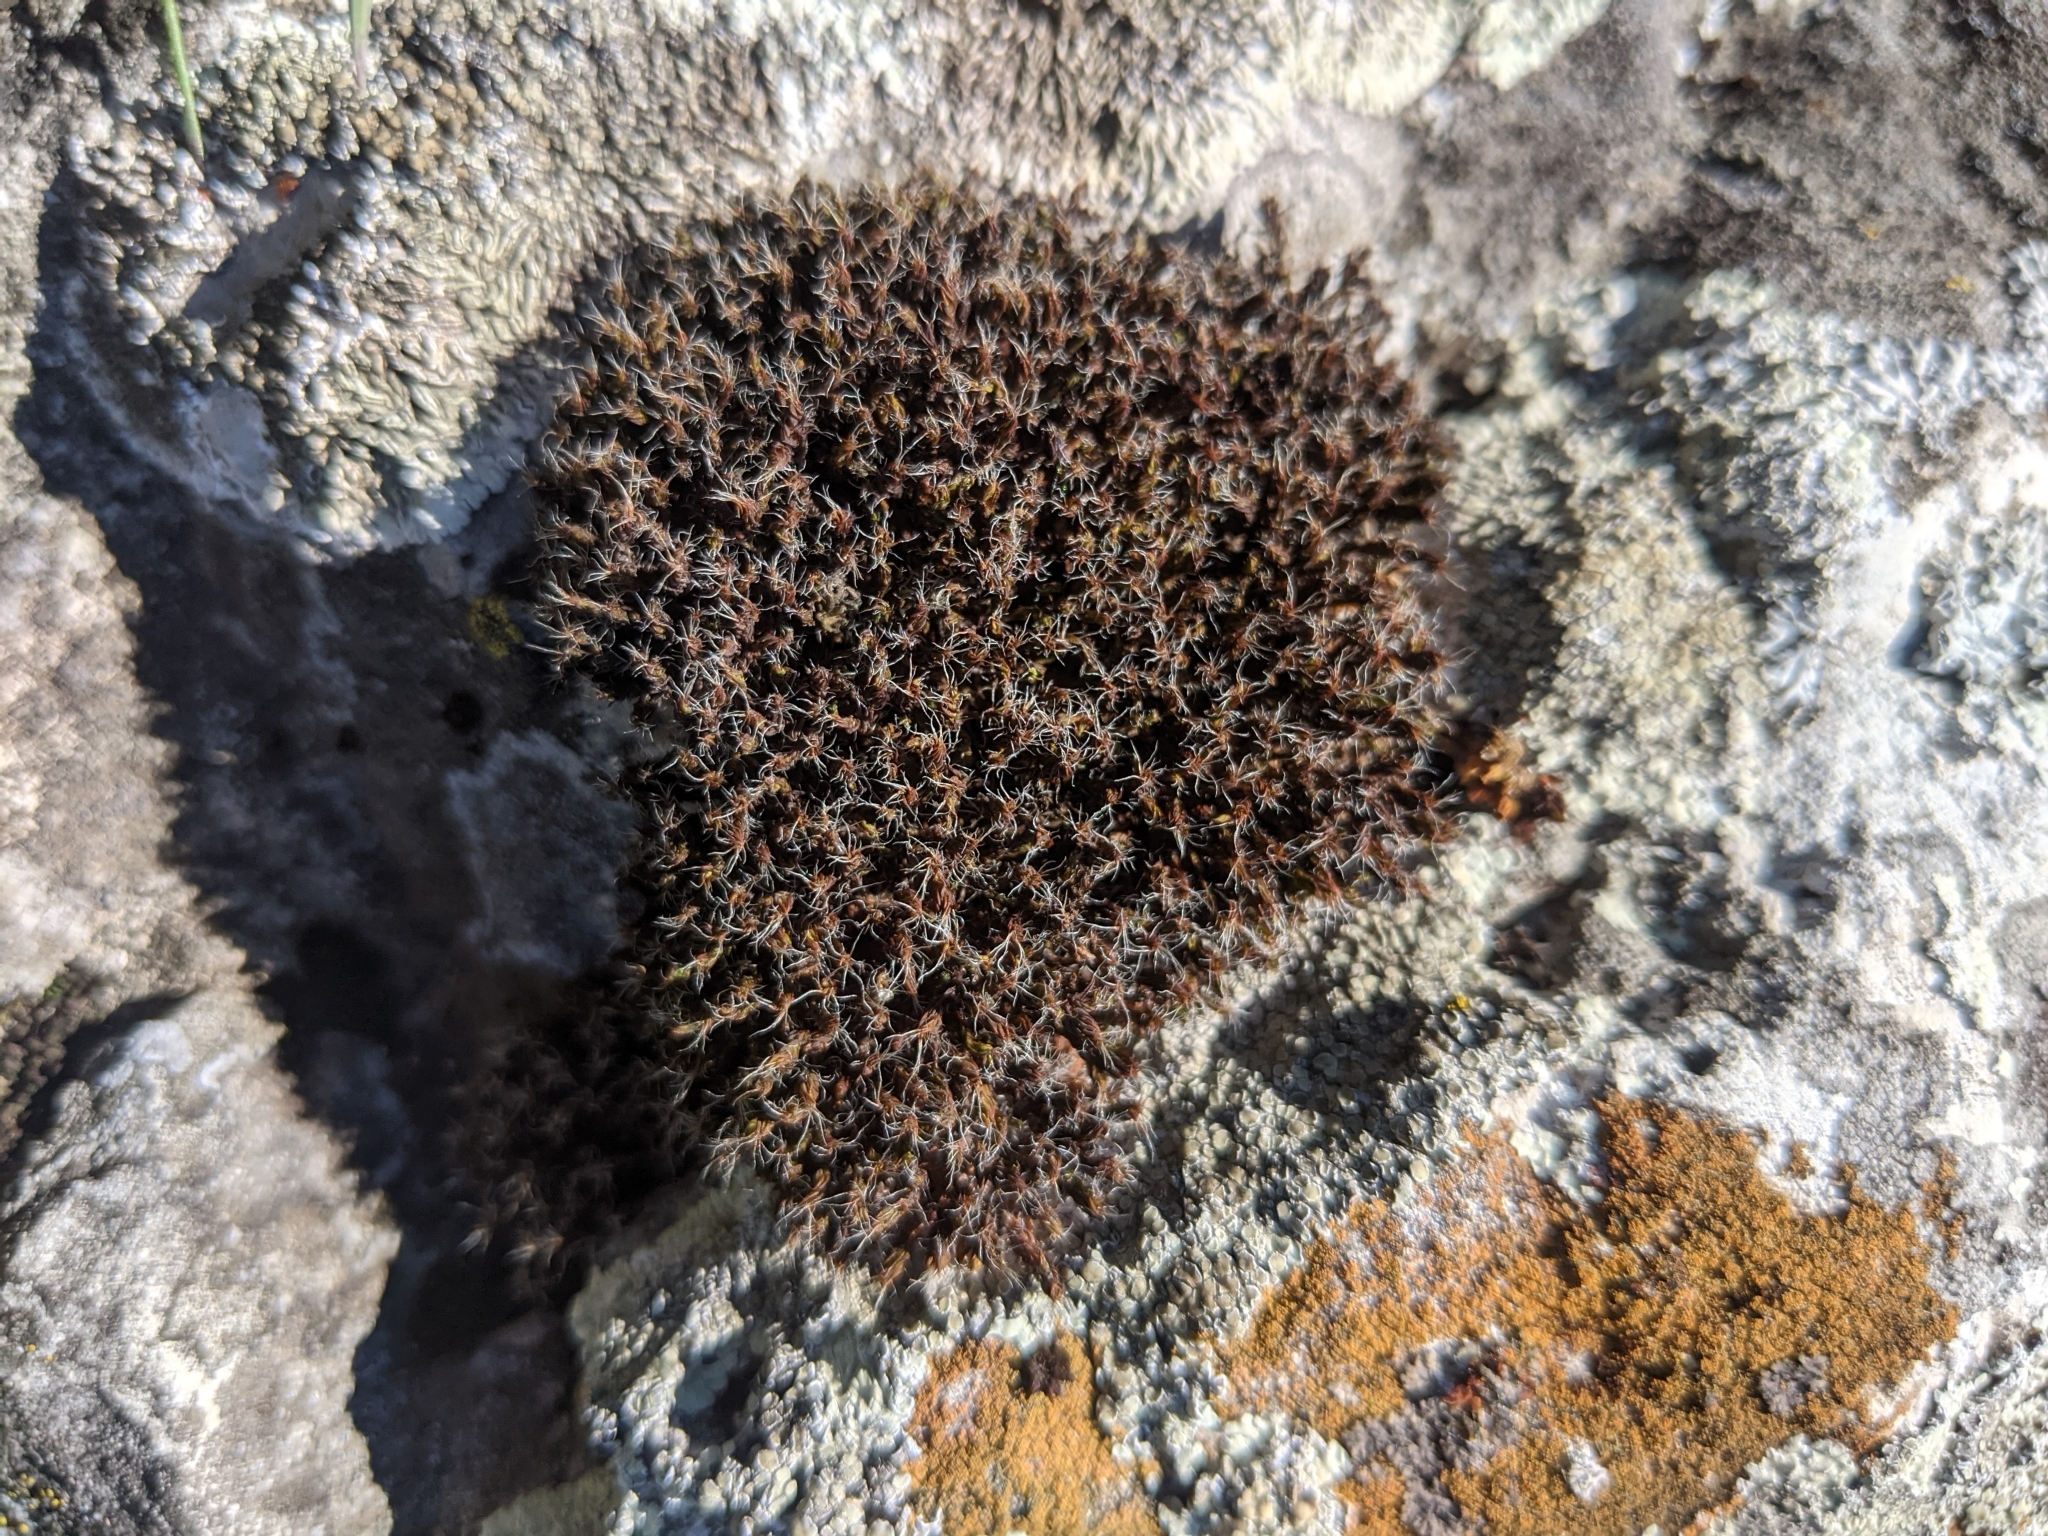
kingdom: Plantae
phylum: Bryophyta
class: Bryopsida
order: Pottiales
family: Pottiaceae
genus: Syntrichia
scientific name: Syntrichia ruralis
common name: Sidewalk screw moss
